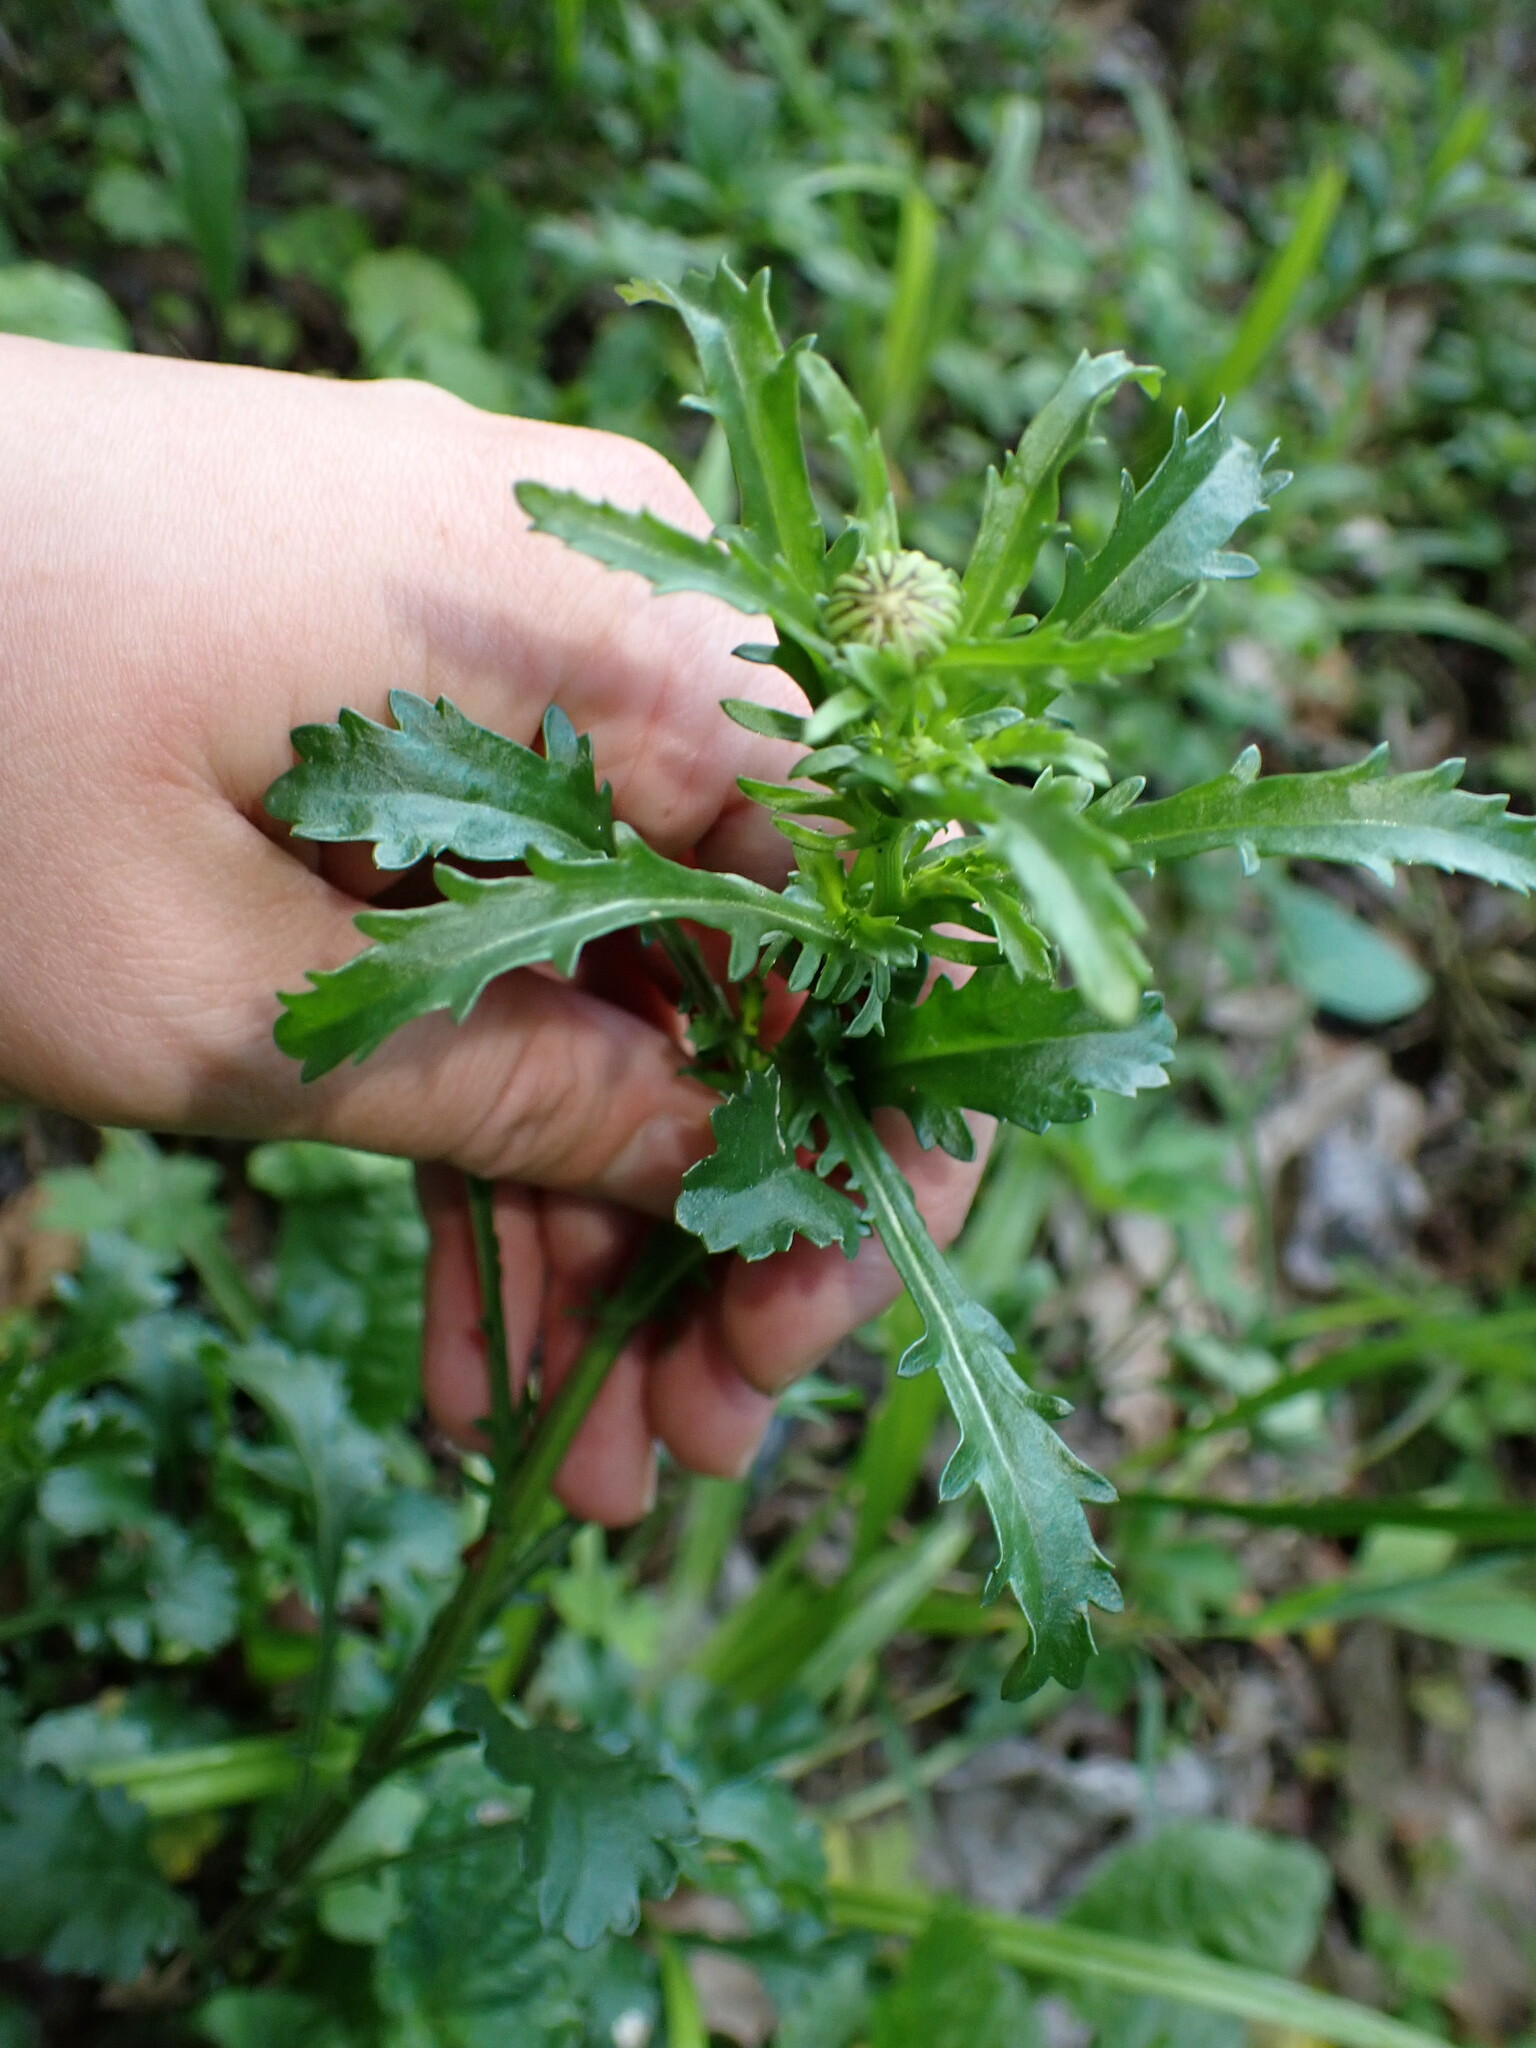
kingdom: Plantae
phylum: Tracheophyta
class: Magnoliopsida
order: Asterales
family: Asteraceae
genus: Leucanthemum
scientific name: Leucanthemum vulgare
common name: Oxeye daisy
